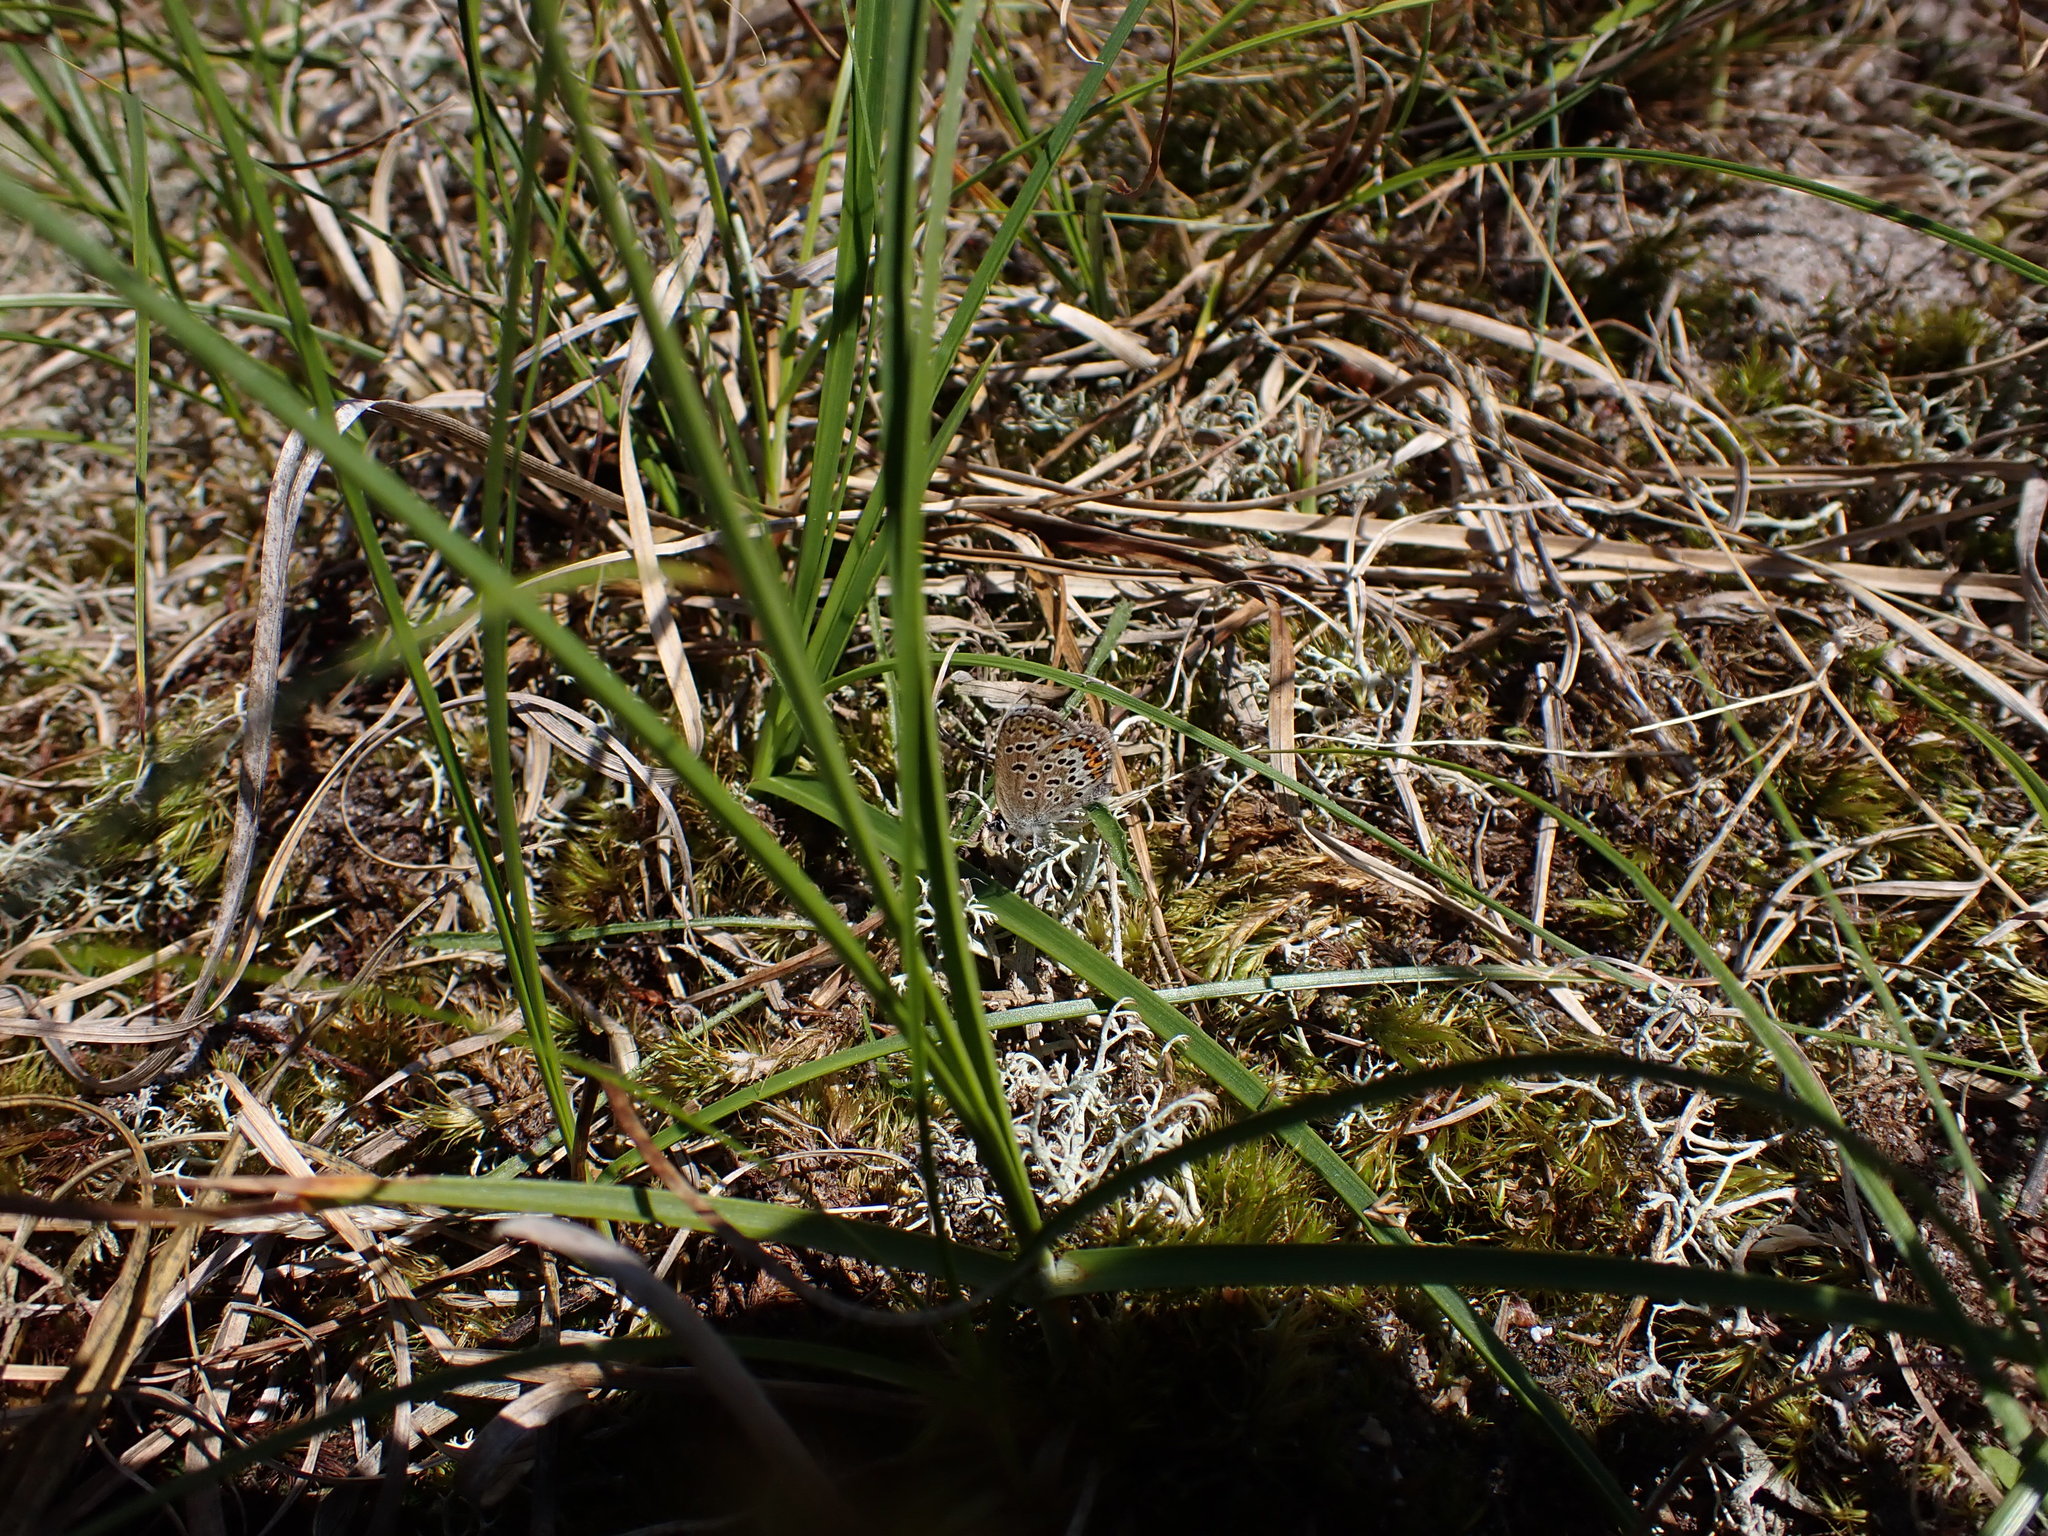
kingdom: Animalia
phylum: Arthropoda
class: Insecta
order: Lepidoptera
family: Lycaenidae
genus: Plebejus
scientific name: Plebejus argus
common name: Silver-studded blue
